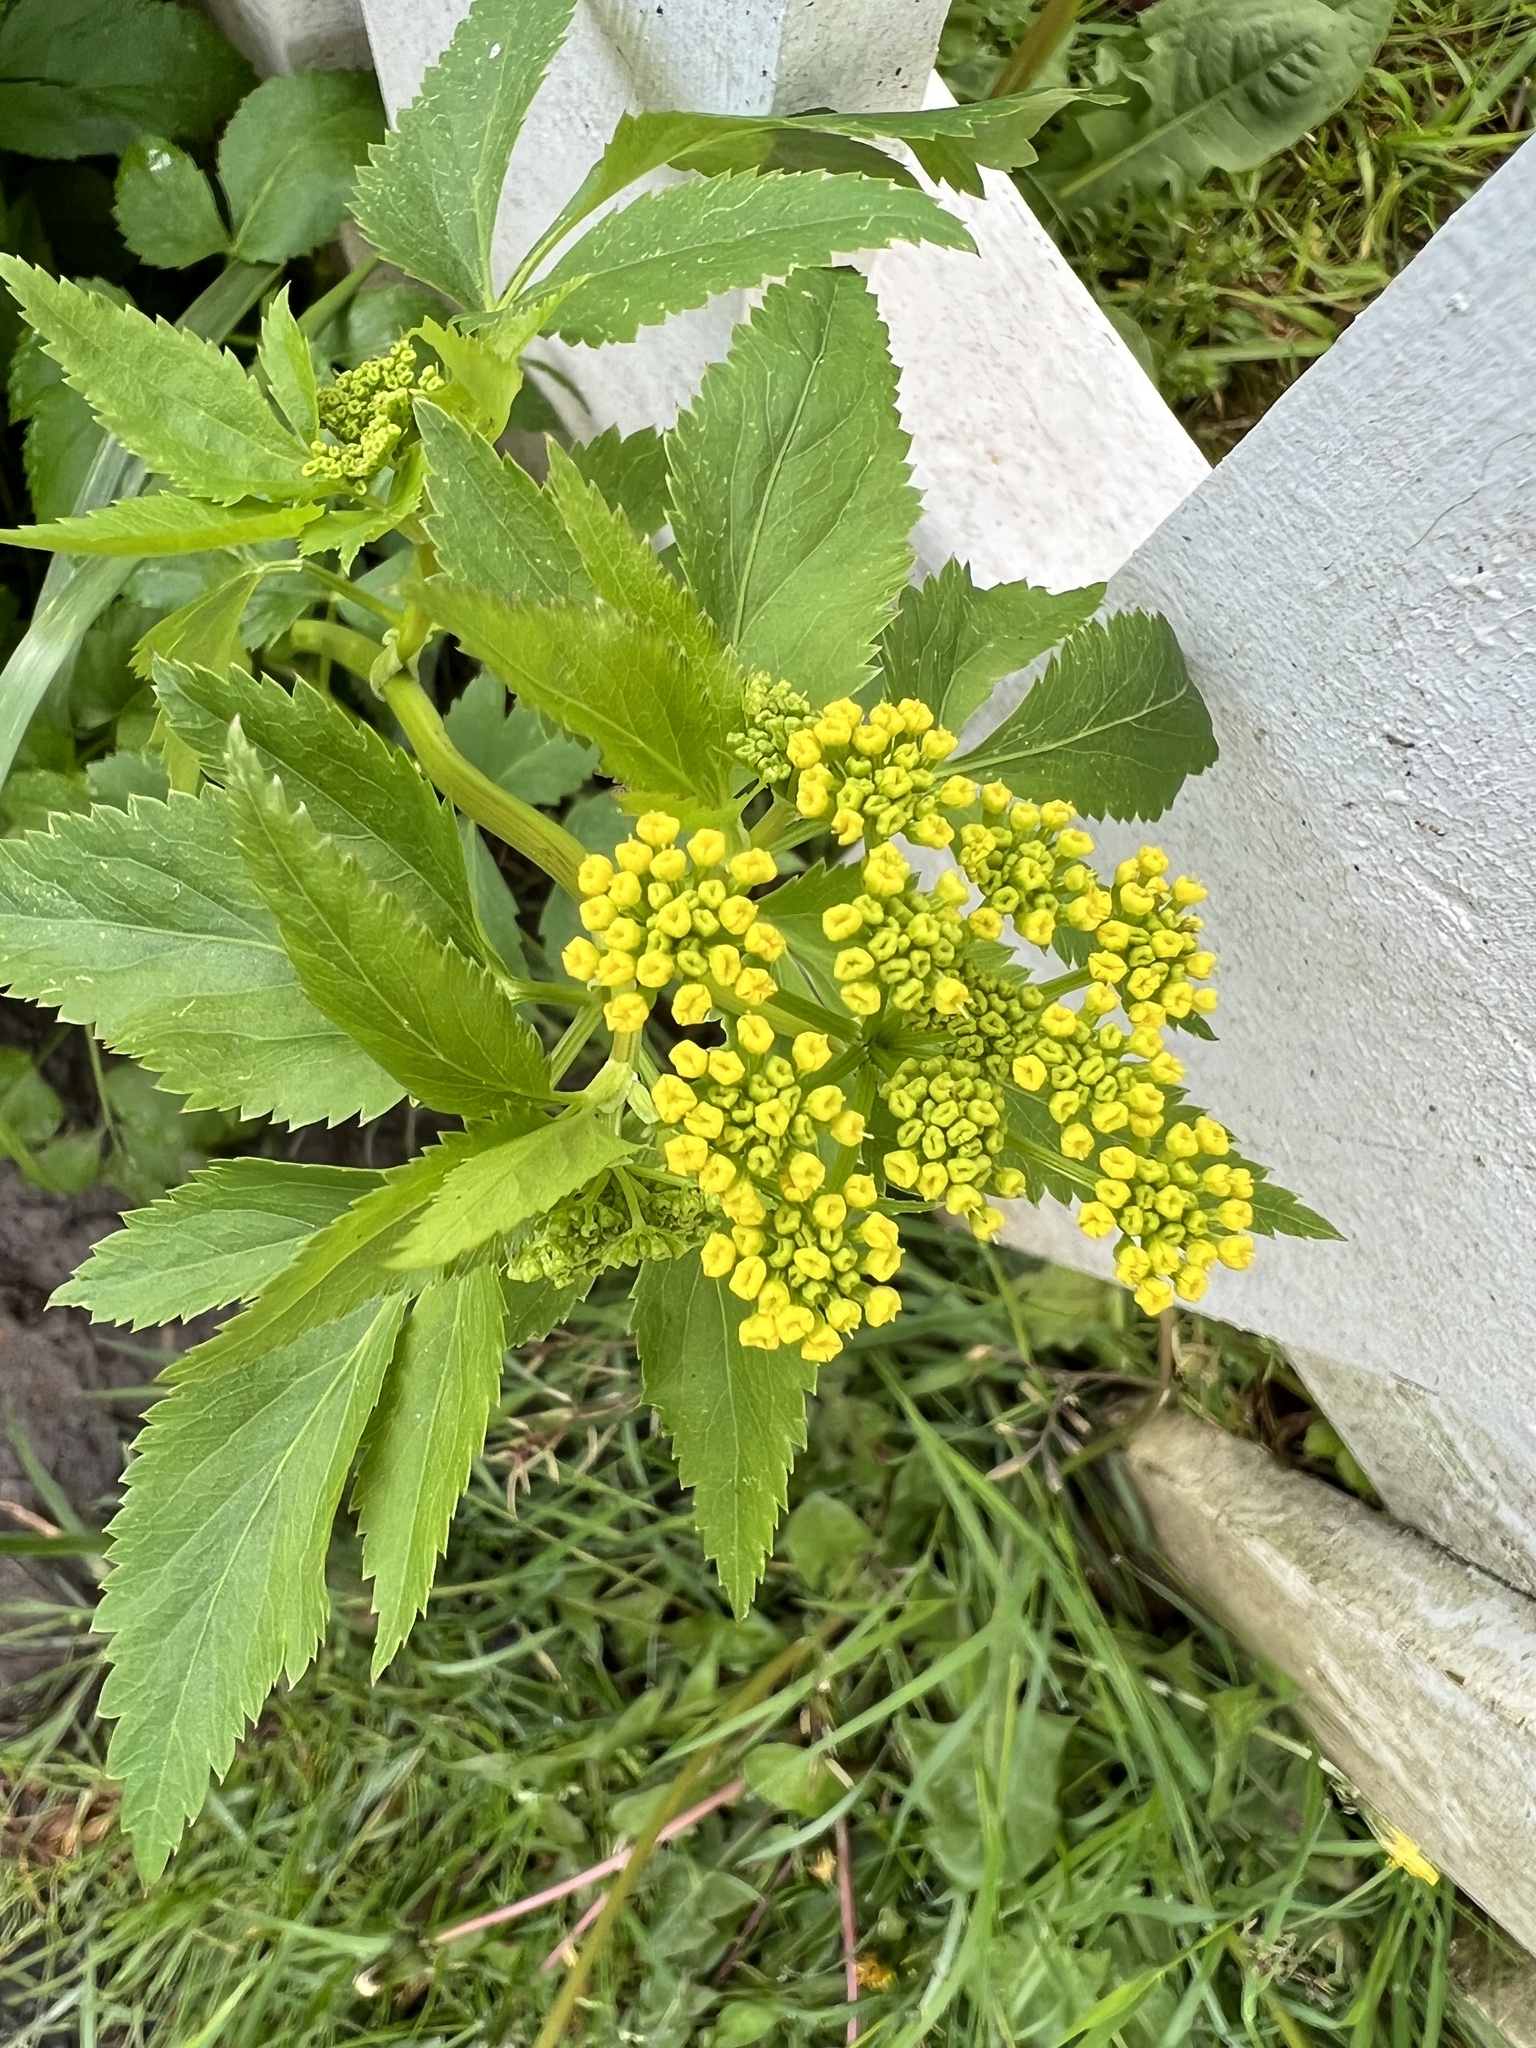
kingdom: Plantae
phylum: Tracheophyta
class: Magnoliopsida
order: Apiales
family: Apiaceae
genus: Zizia
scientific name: Zizia aurea
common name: Golden alexanders
